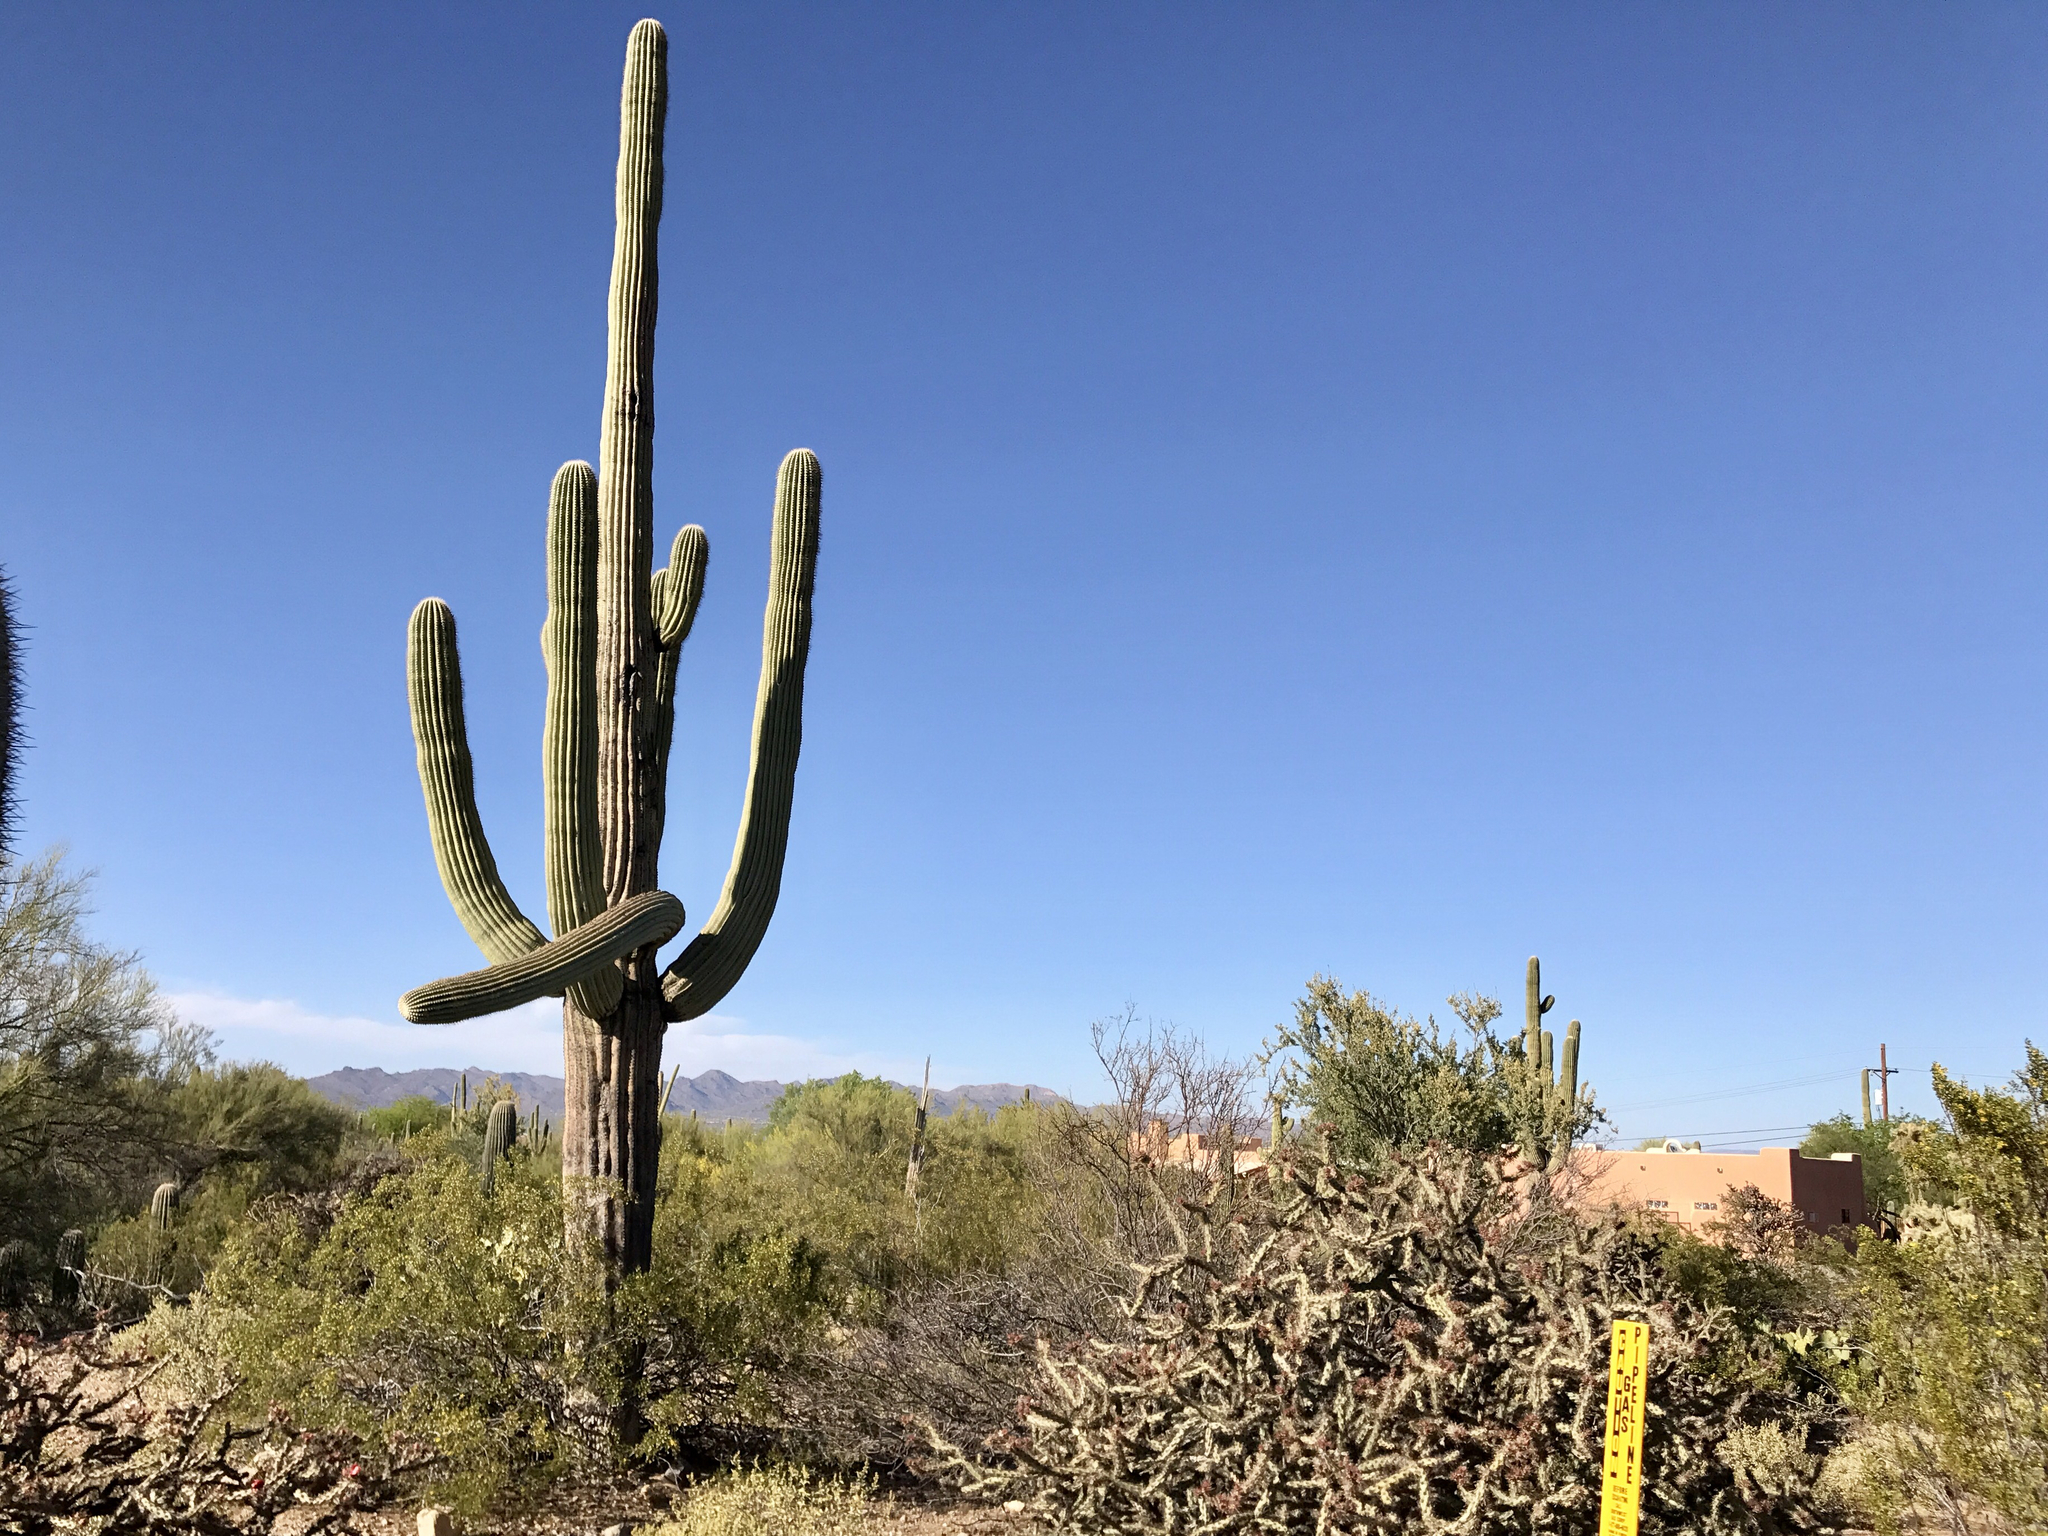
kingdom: Plantae
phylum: Tracheophyta
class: Magnoliopsida
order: Caryophyllales
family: Cactaceae
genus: Carnegiea
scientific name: Carnegiea gigantea
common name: Saguaro
